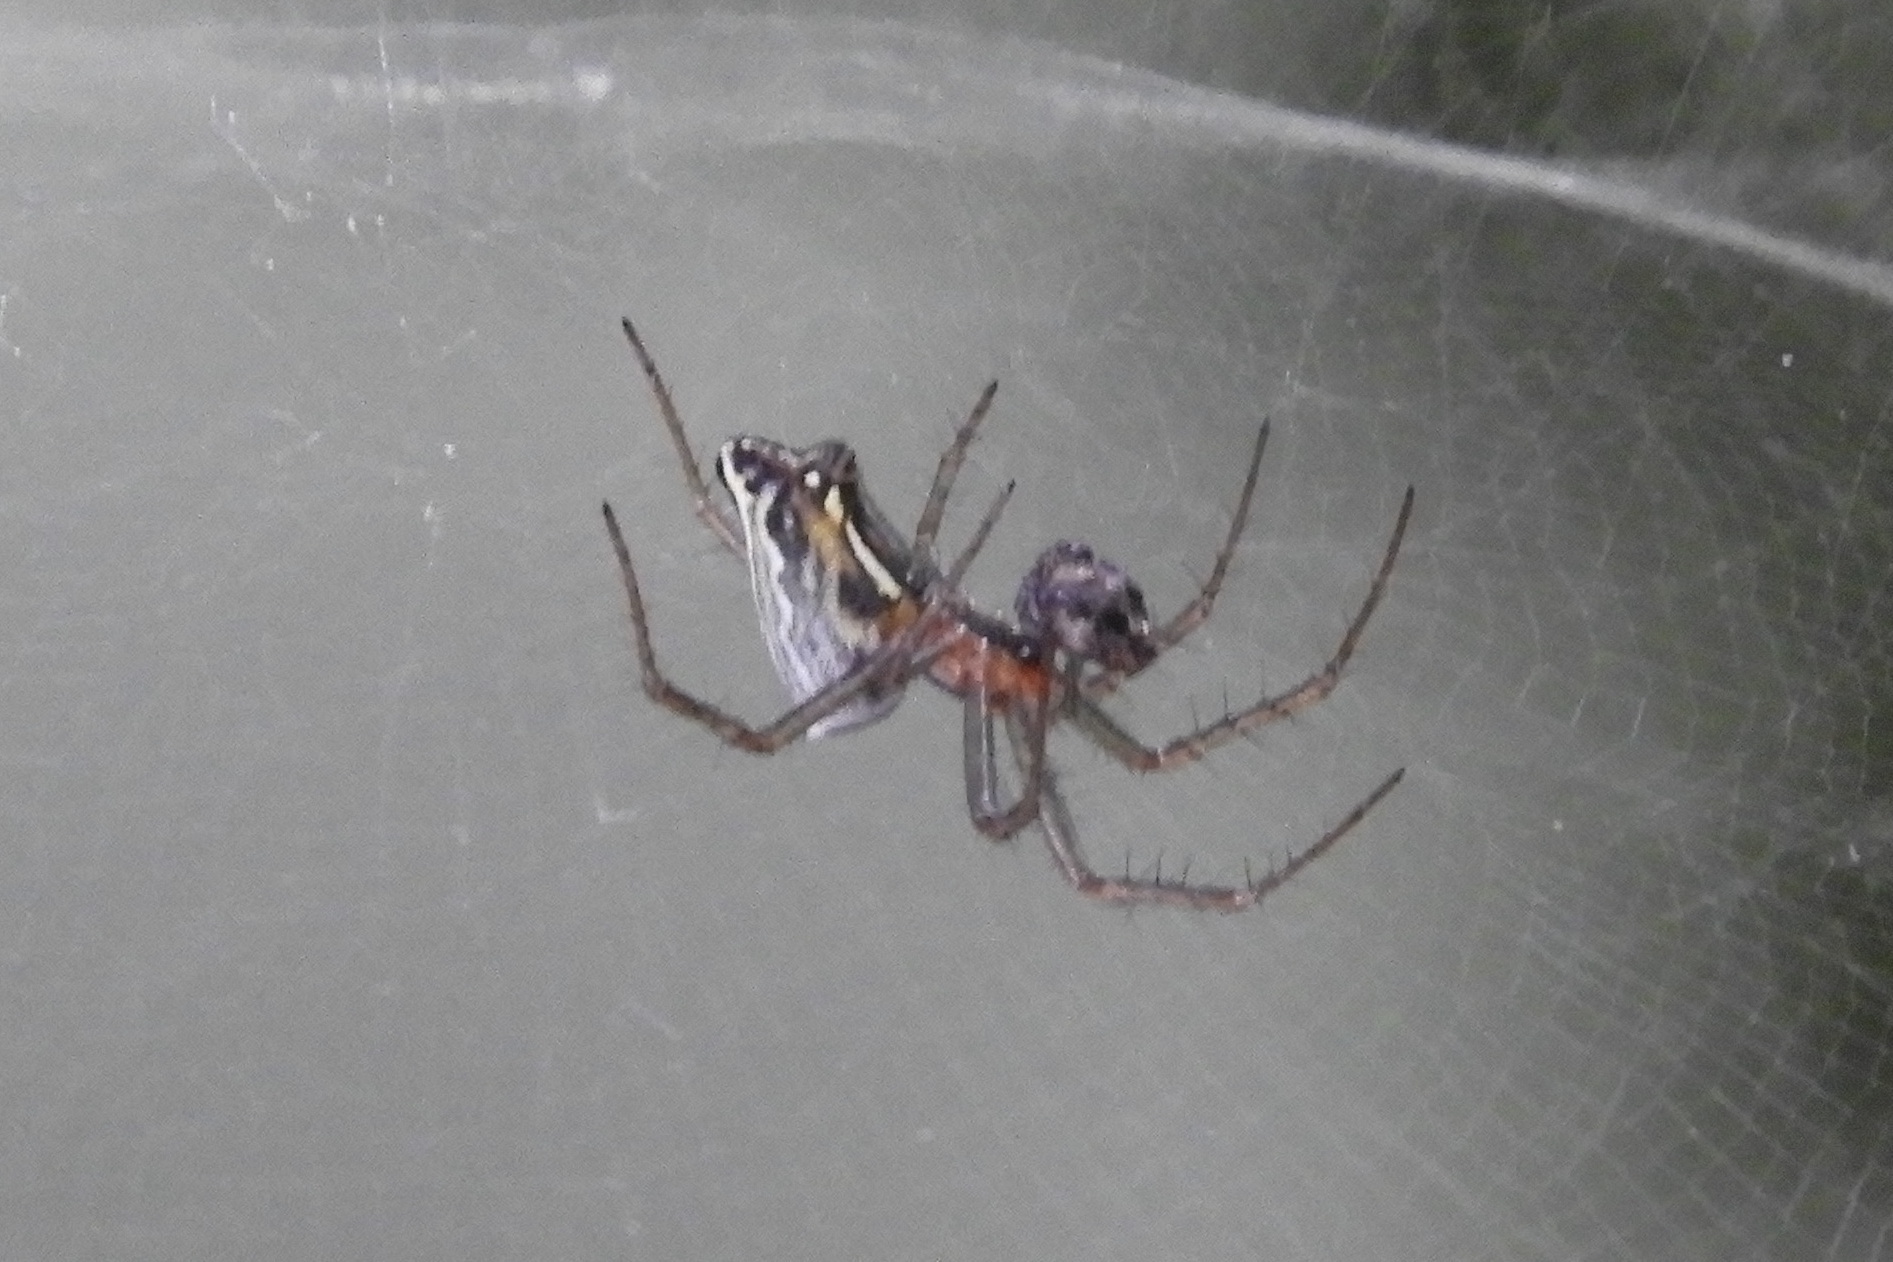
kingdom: Animalia
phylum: Arthropoda
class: Arachnida
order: Araneae
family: Araneidae
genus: Mecynogea
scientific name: Mecynogea lemniscata
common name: Orb weavers
